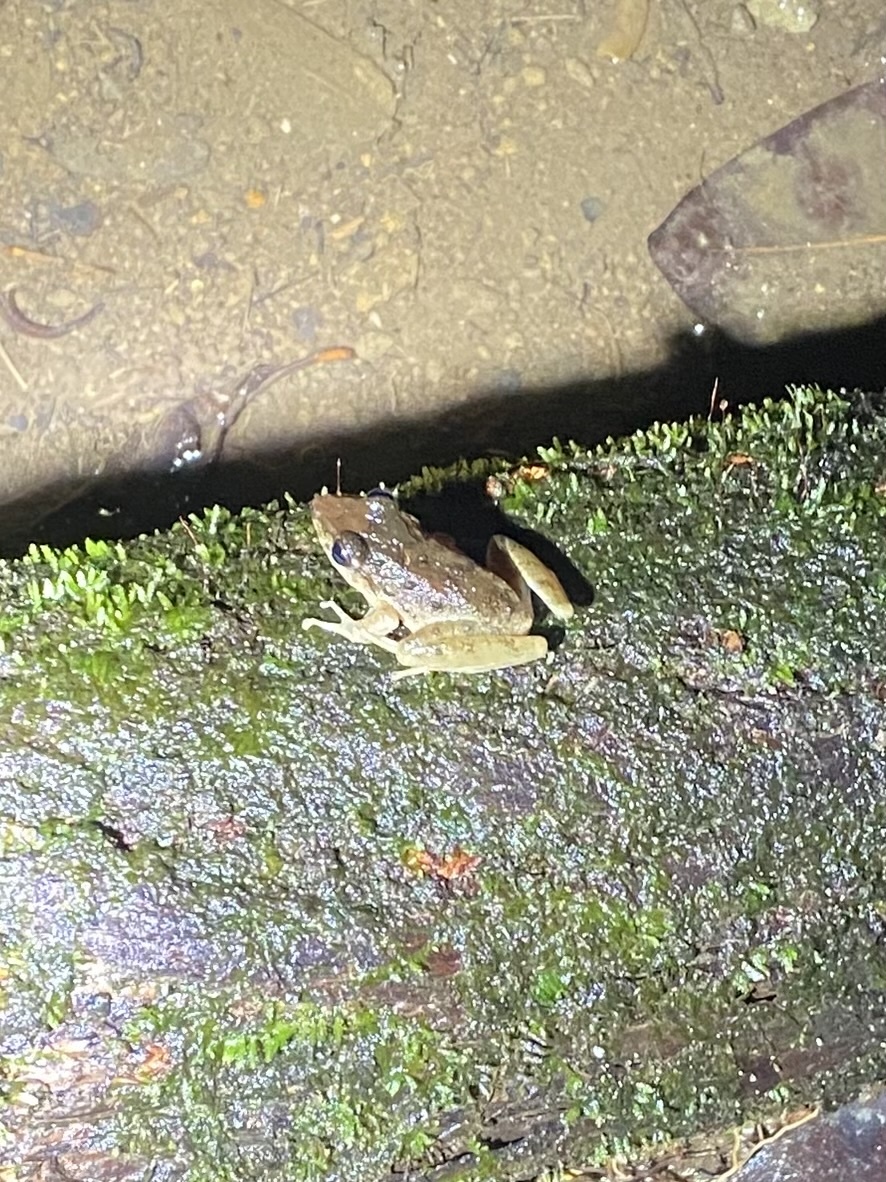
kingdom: Animalia
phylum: Chordata
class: Amphibia
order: Anura
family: Craugastoridae
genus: Craugastor
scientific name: Craugastor fitzingeri
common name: Fitzinger's robber frog
